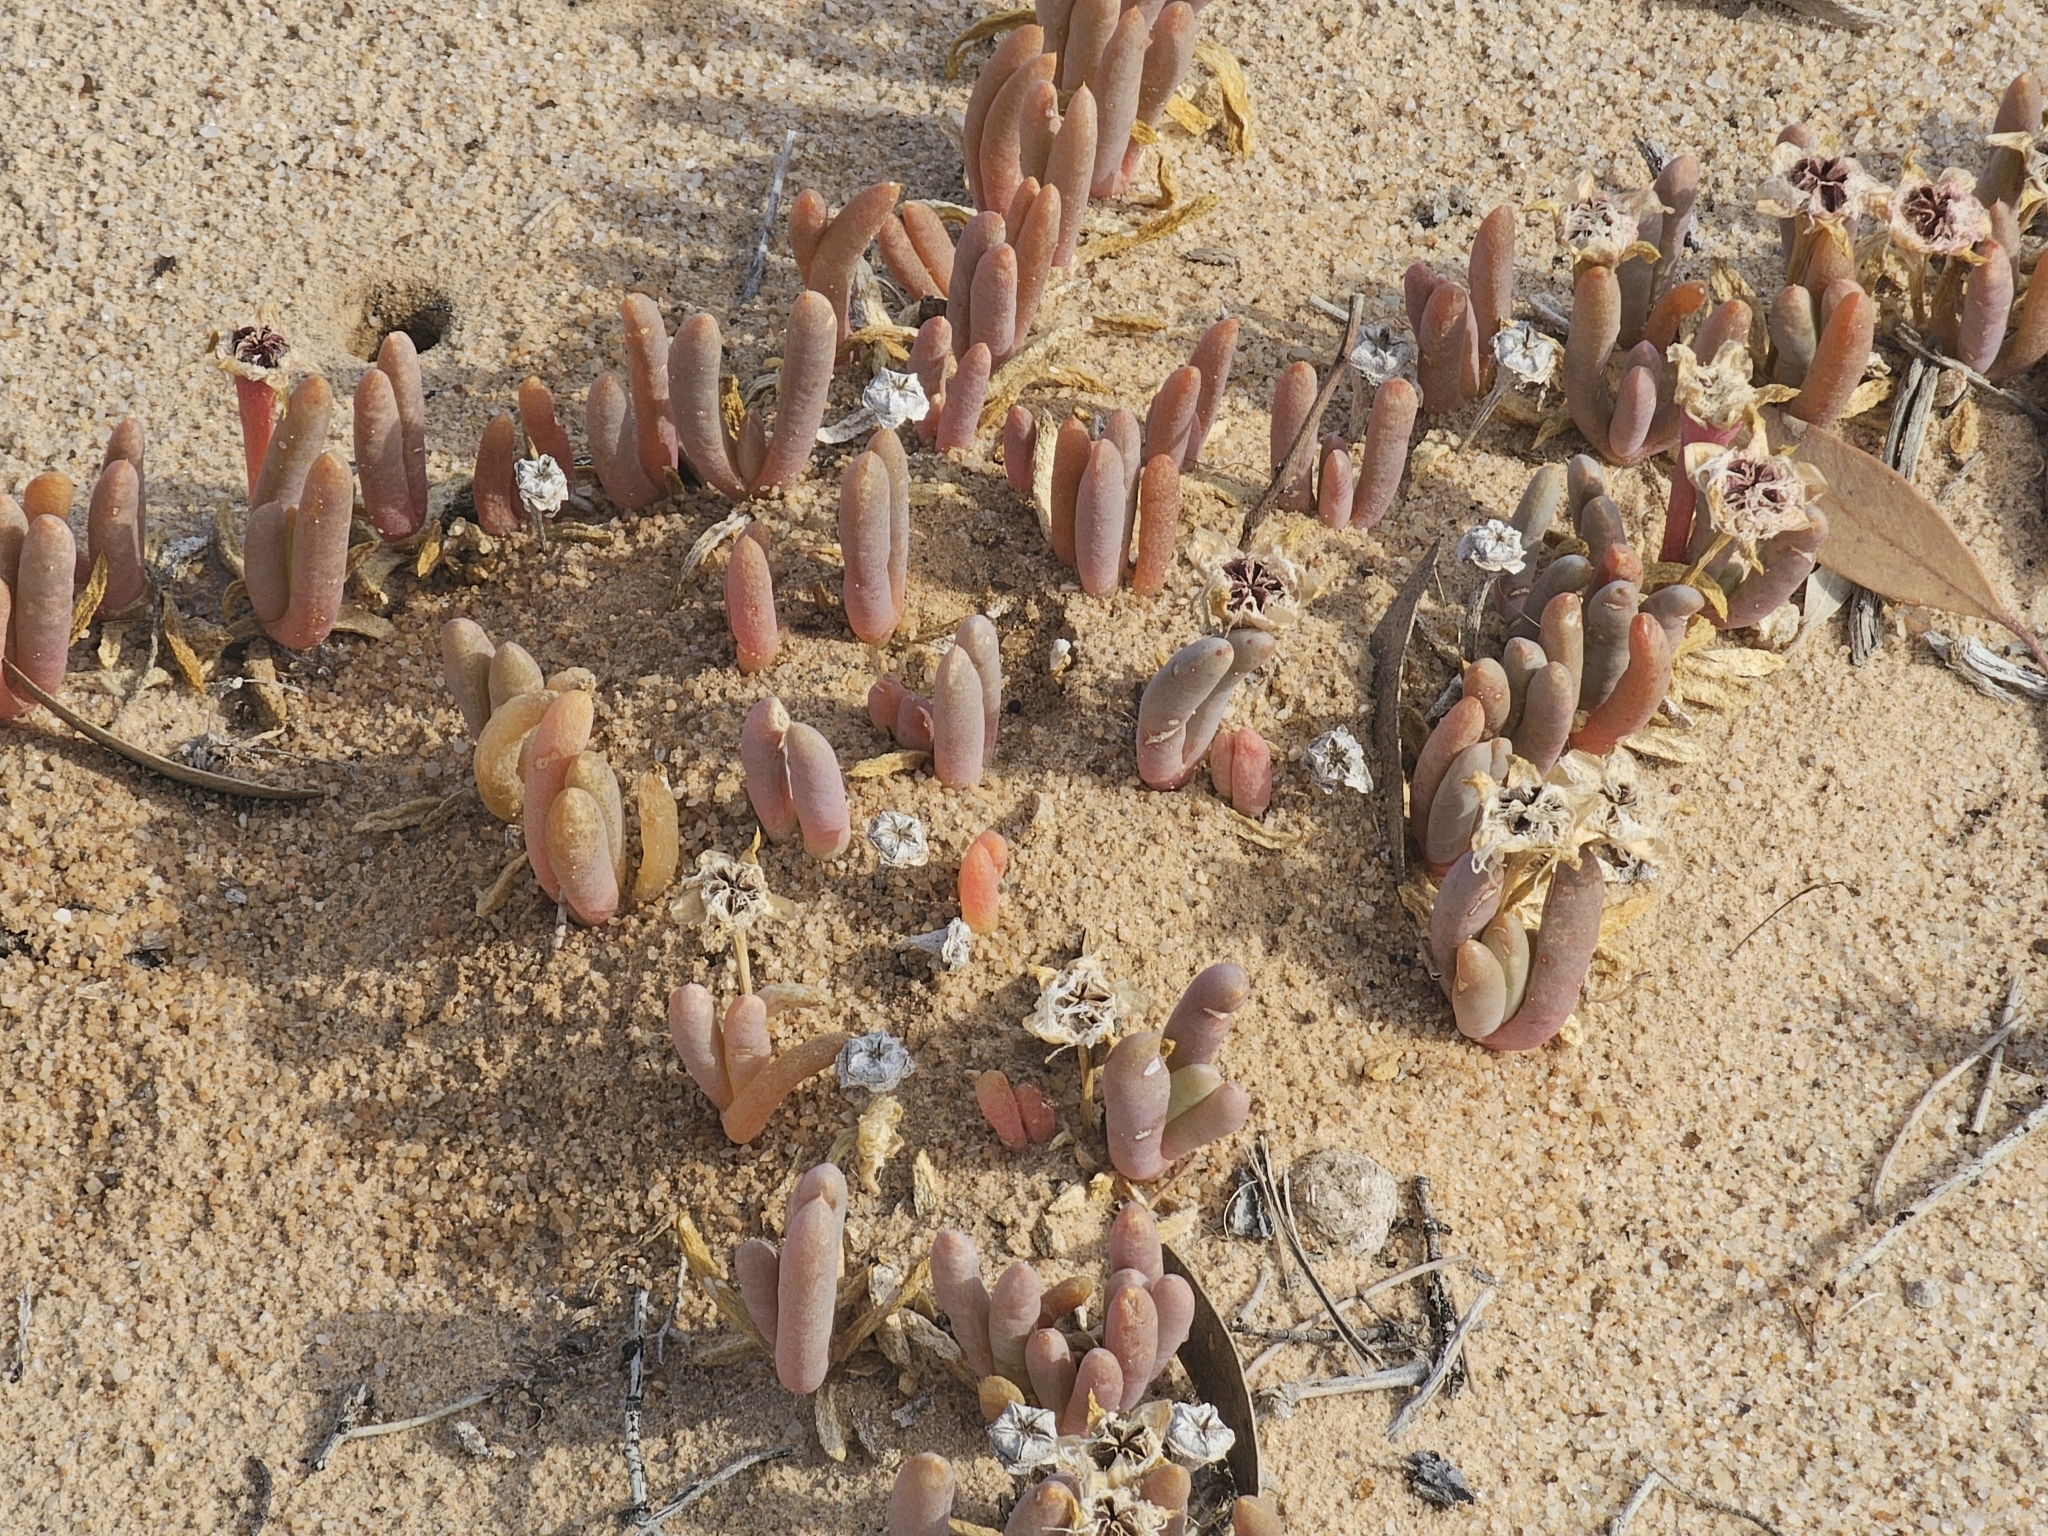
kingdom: Plantae
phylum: Tracheophyta
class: Magnoliopsida
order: Caryophyllales
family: Aizoaceae
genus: Disphyma
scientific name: Disphyma crassifolium
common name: Purple dewplant
